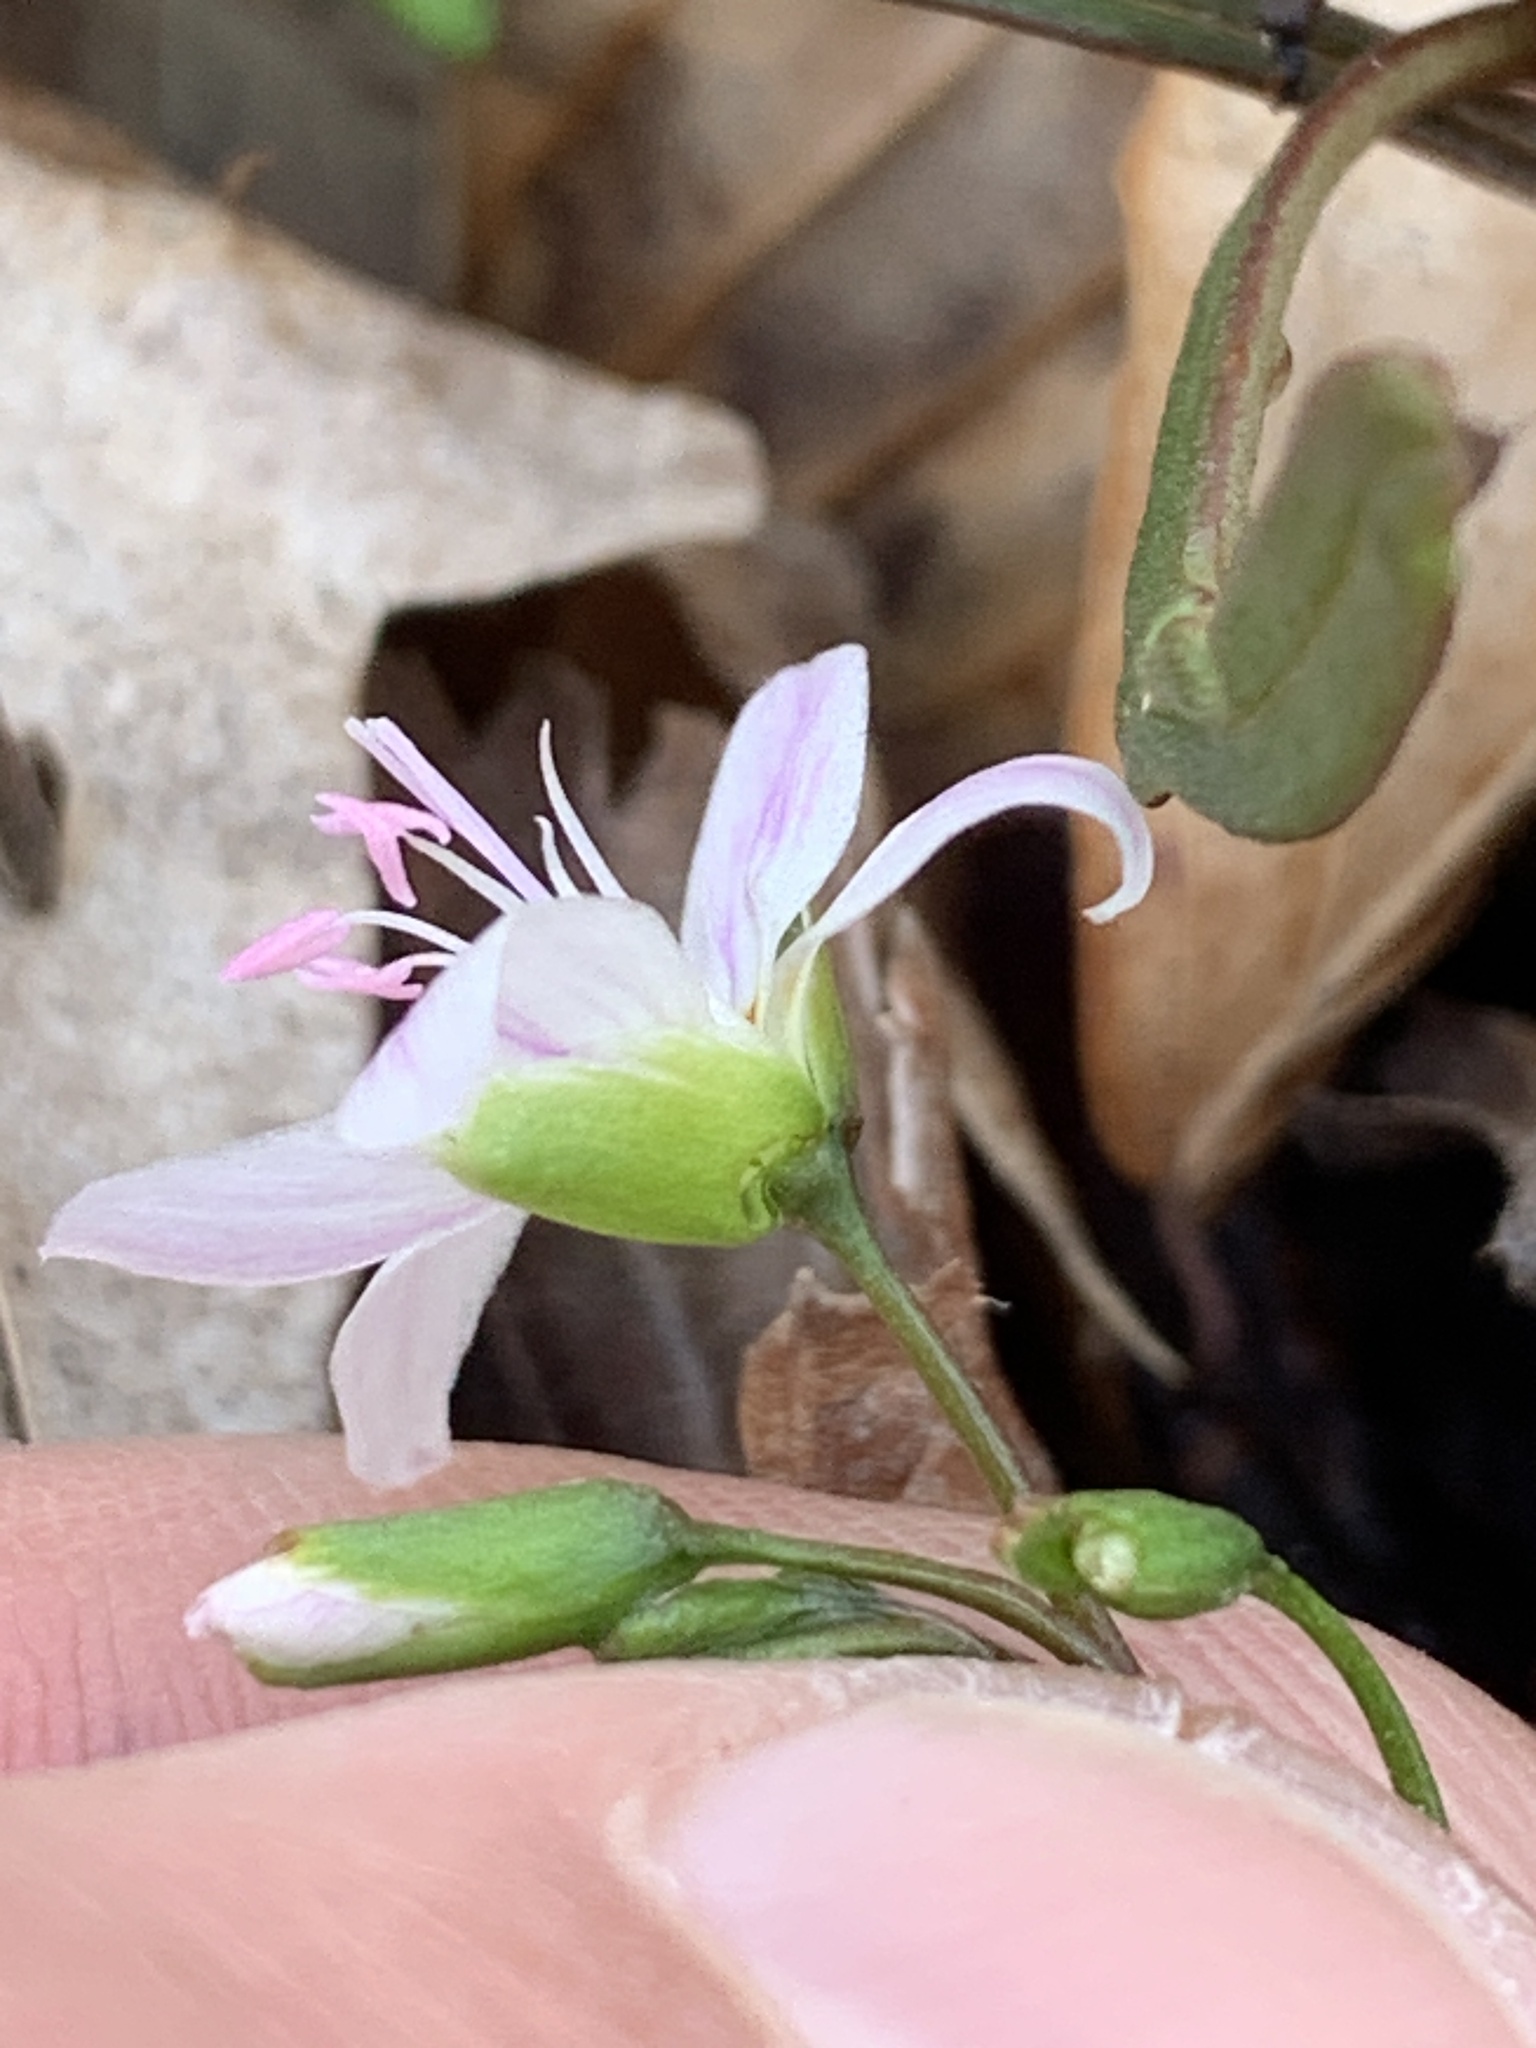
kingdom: Plantae
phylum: Tracheophyta
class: Magnoliopsida
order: Caryophyllales
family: Montiaceae
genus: Claytonia
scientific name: Claytonia virginica
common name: Virginia springbeauty
